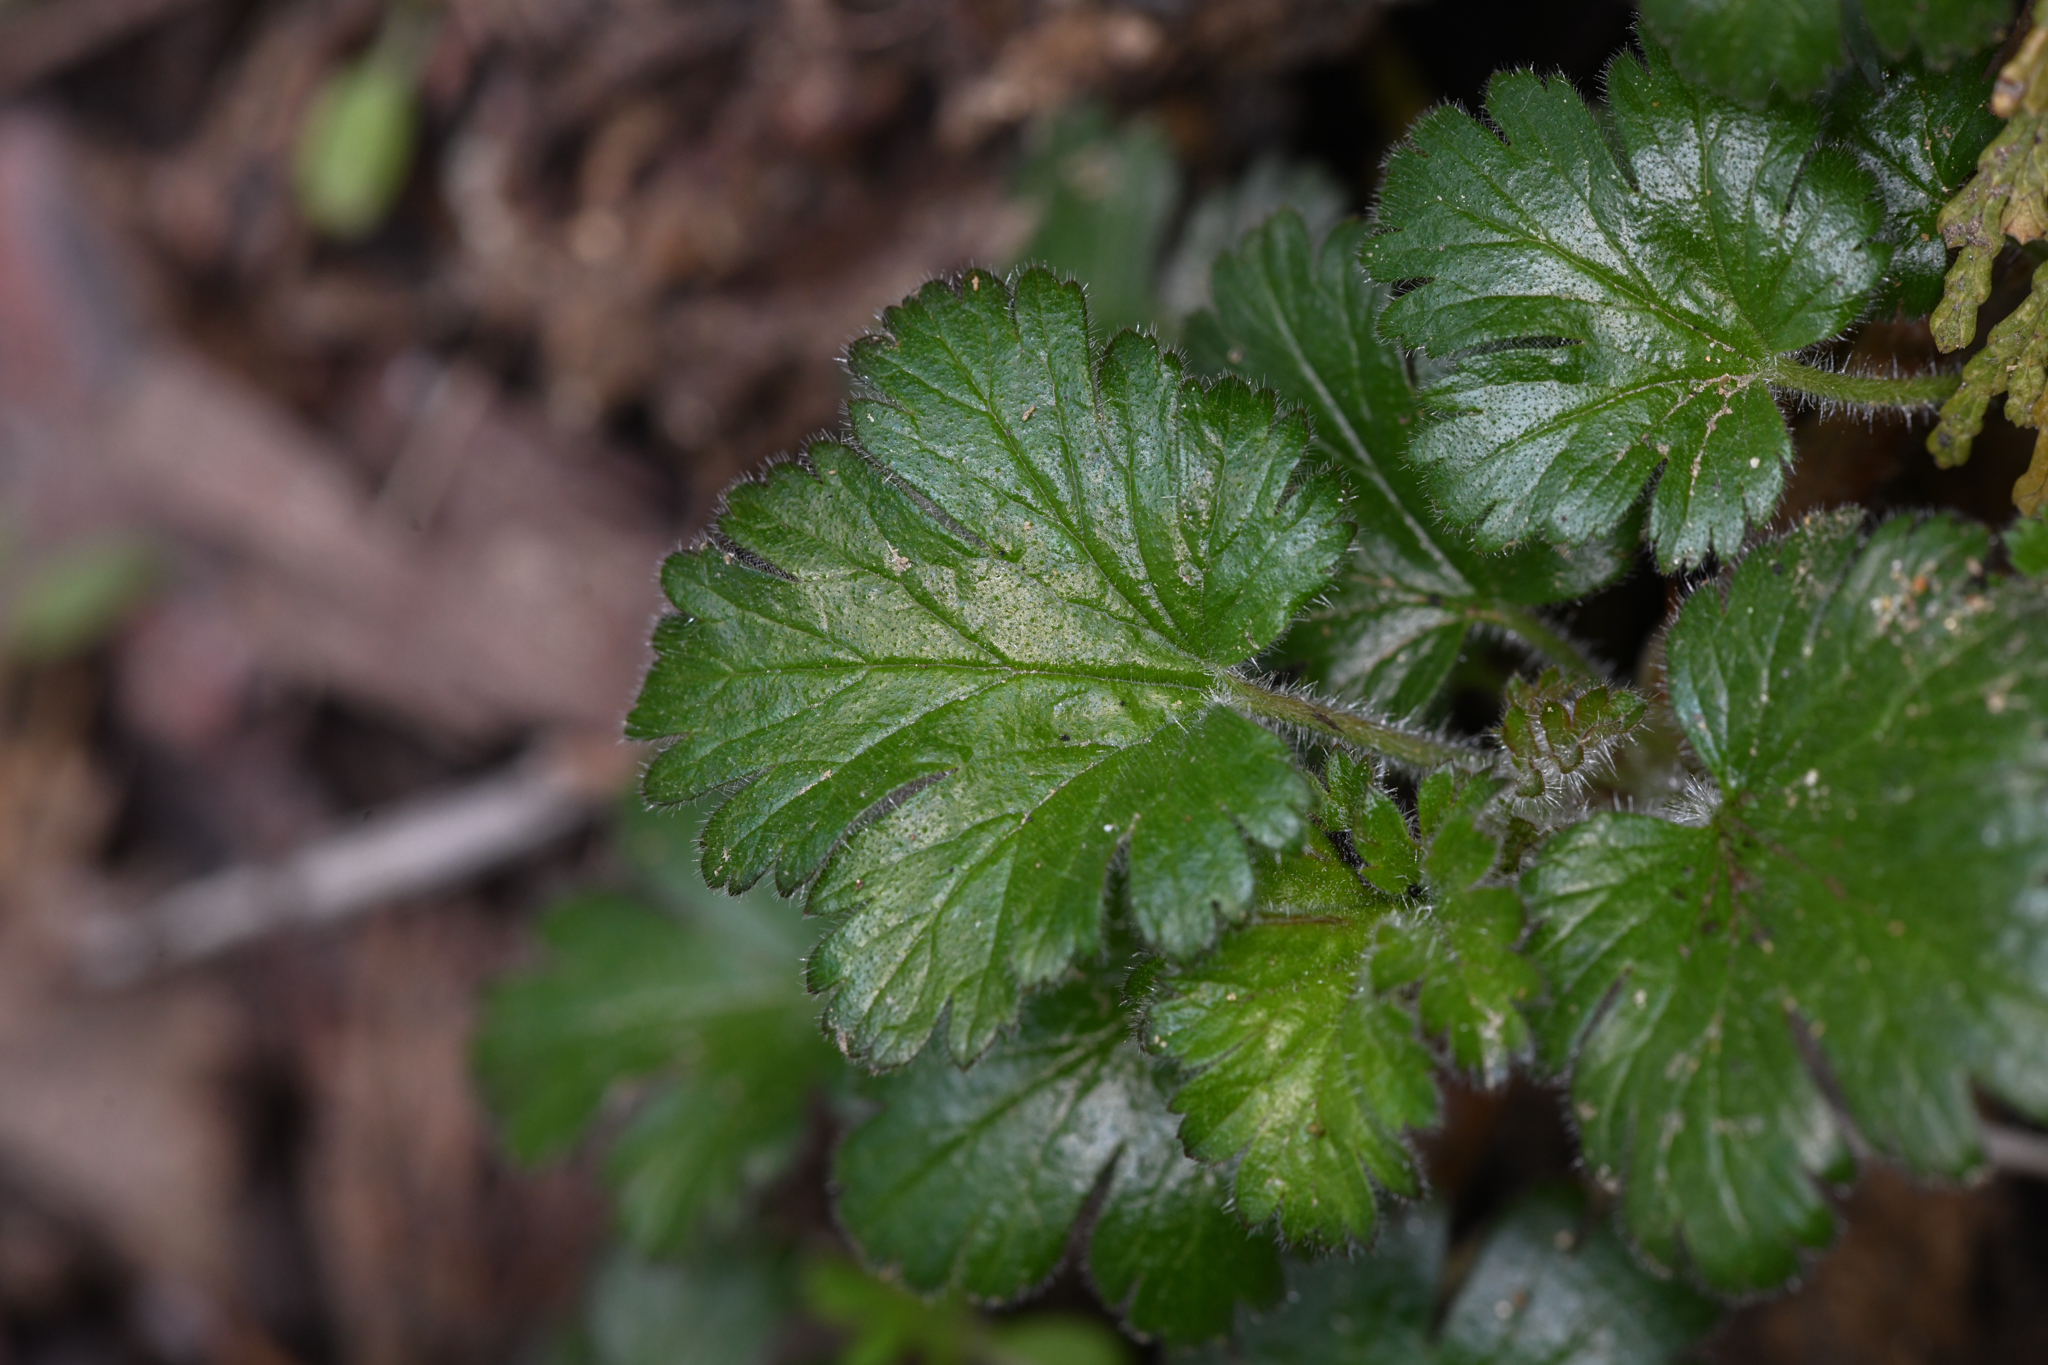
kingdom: Plantae
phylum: Tracheophyta
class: Magnoliopsida
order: Saxifragales
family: Grossulariaceae
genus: Ribes
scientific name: Ribes tularense
